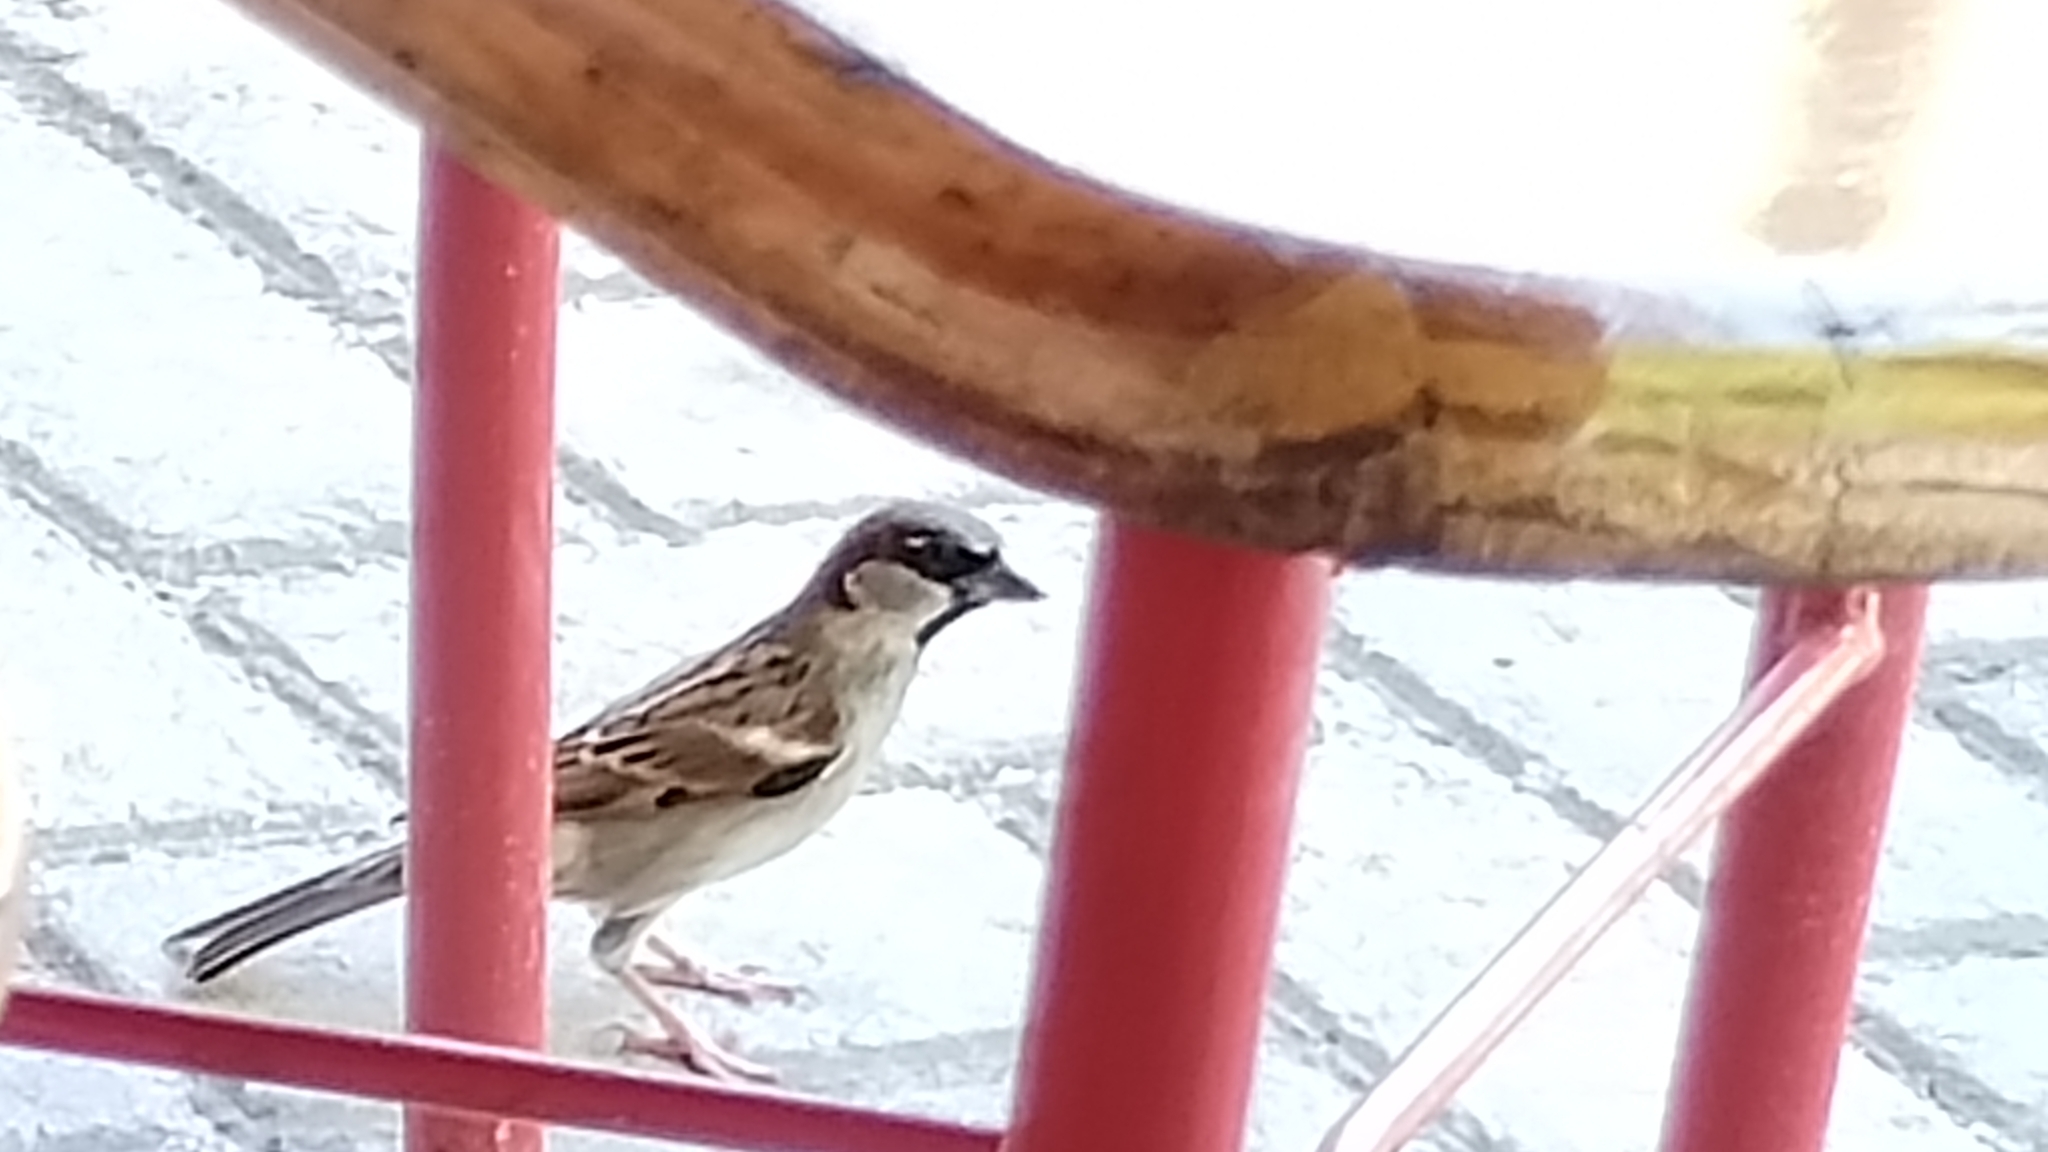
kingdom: Animalia
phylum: Chordata
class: Aves
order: Passeriformes
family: Passeridae
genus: Passer
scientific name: Passer domesticus
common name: House sparrow
